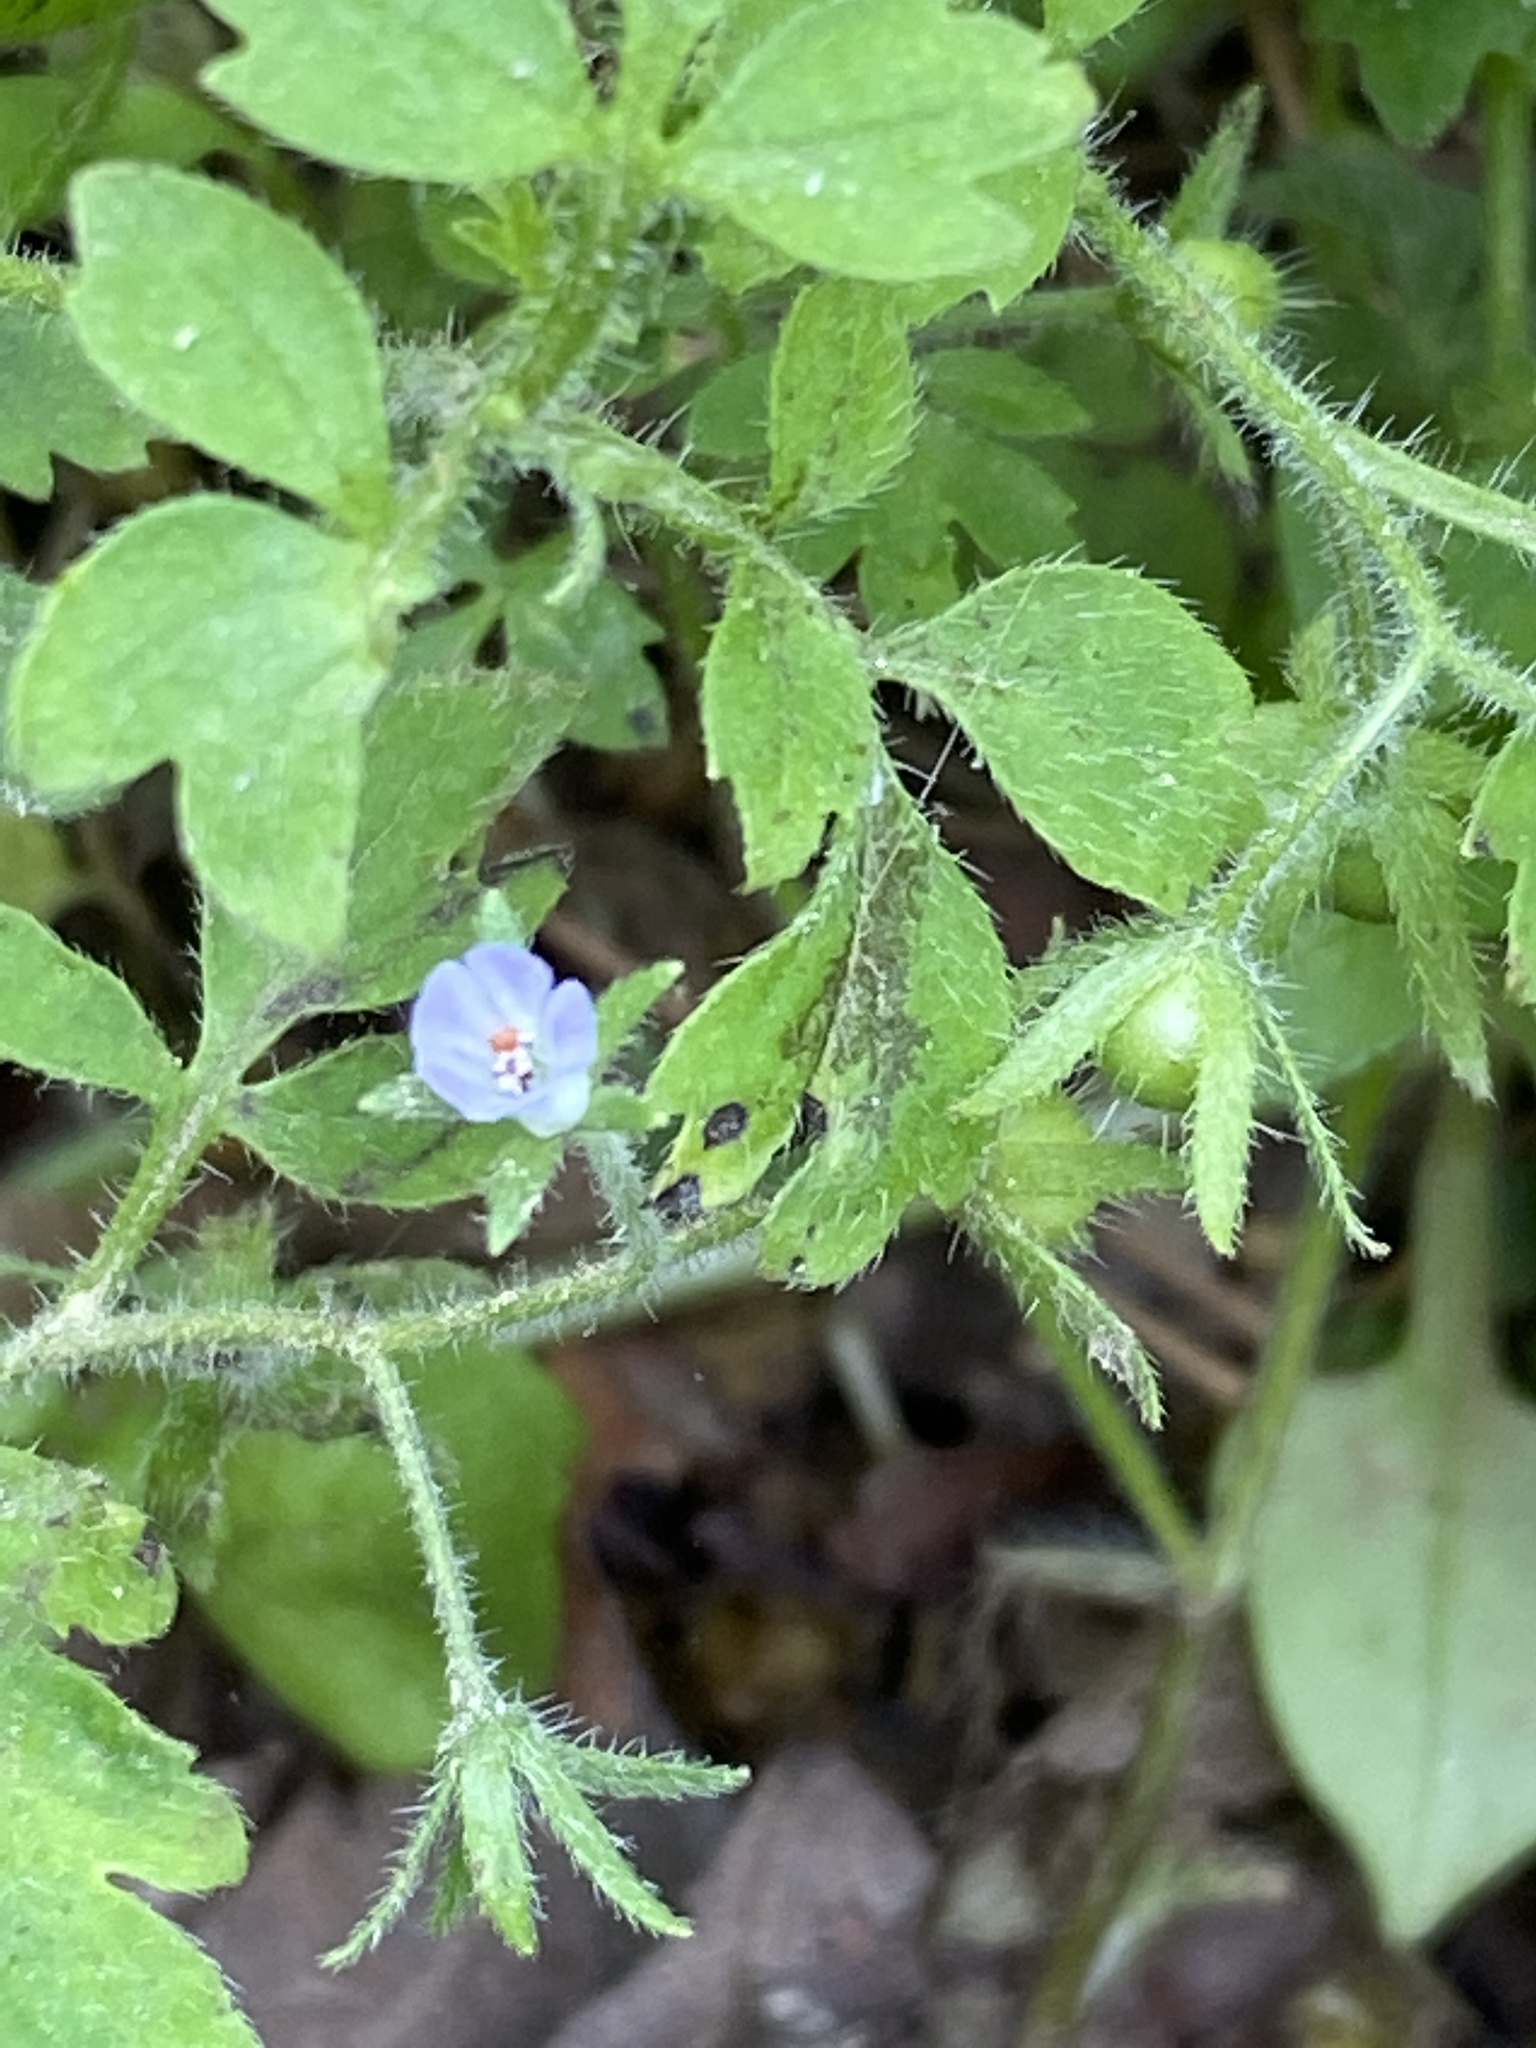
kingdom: Plantae
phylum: Tracheophyta
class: Magnoliopsida
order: Boraginales
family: Hydrophyllaceae
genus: Phacelia
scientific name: Phacelia covillei
